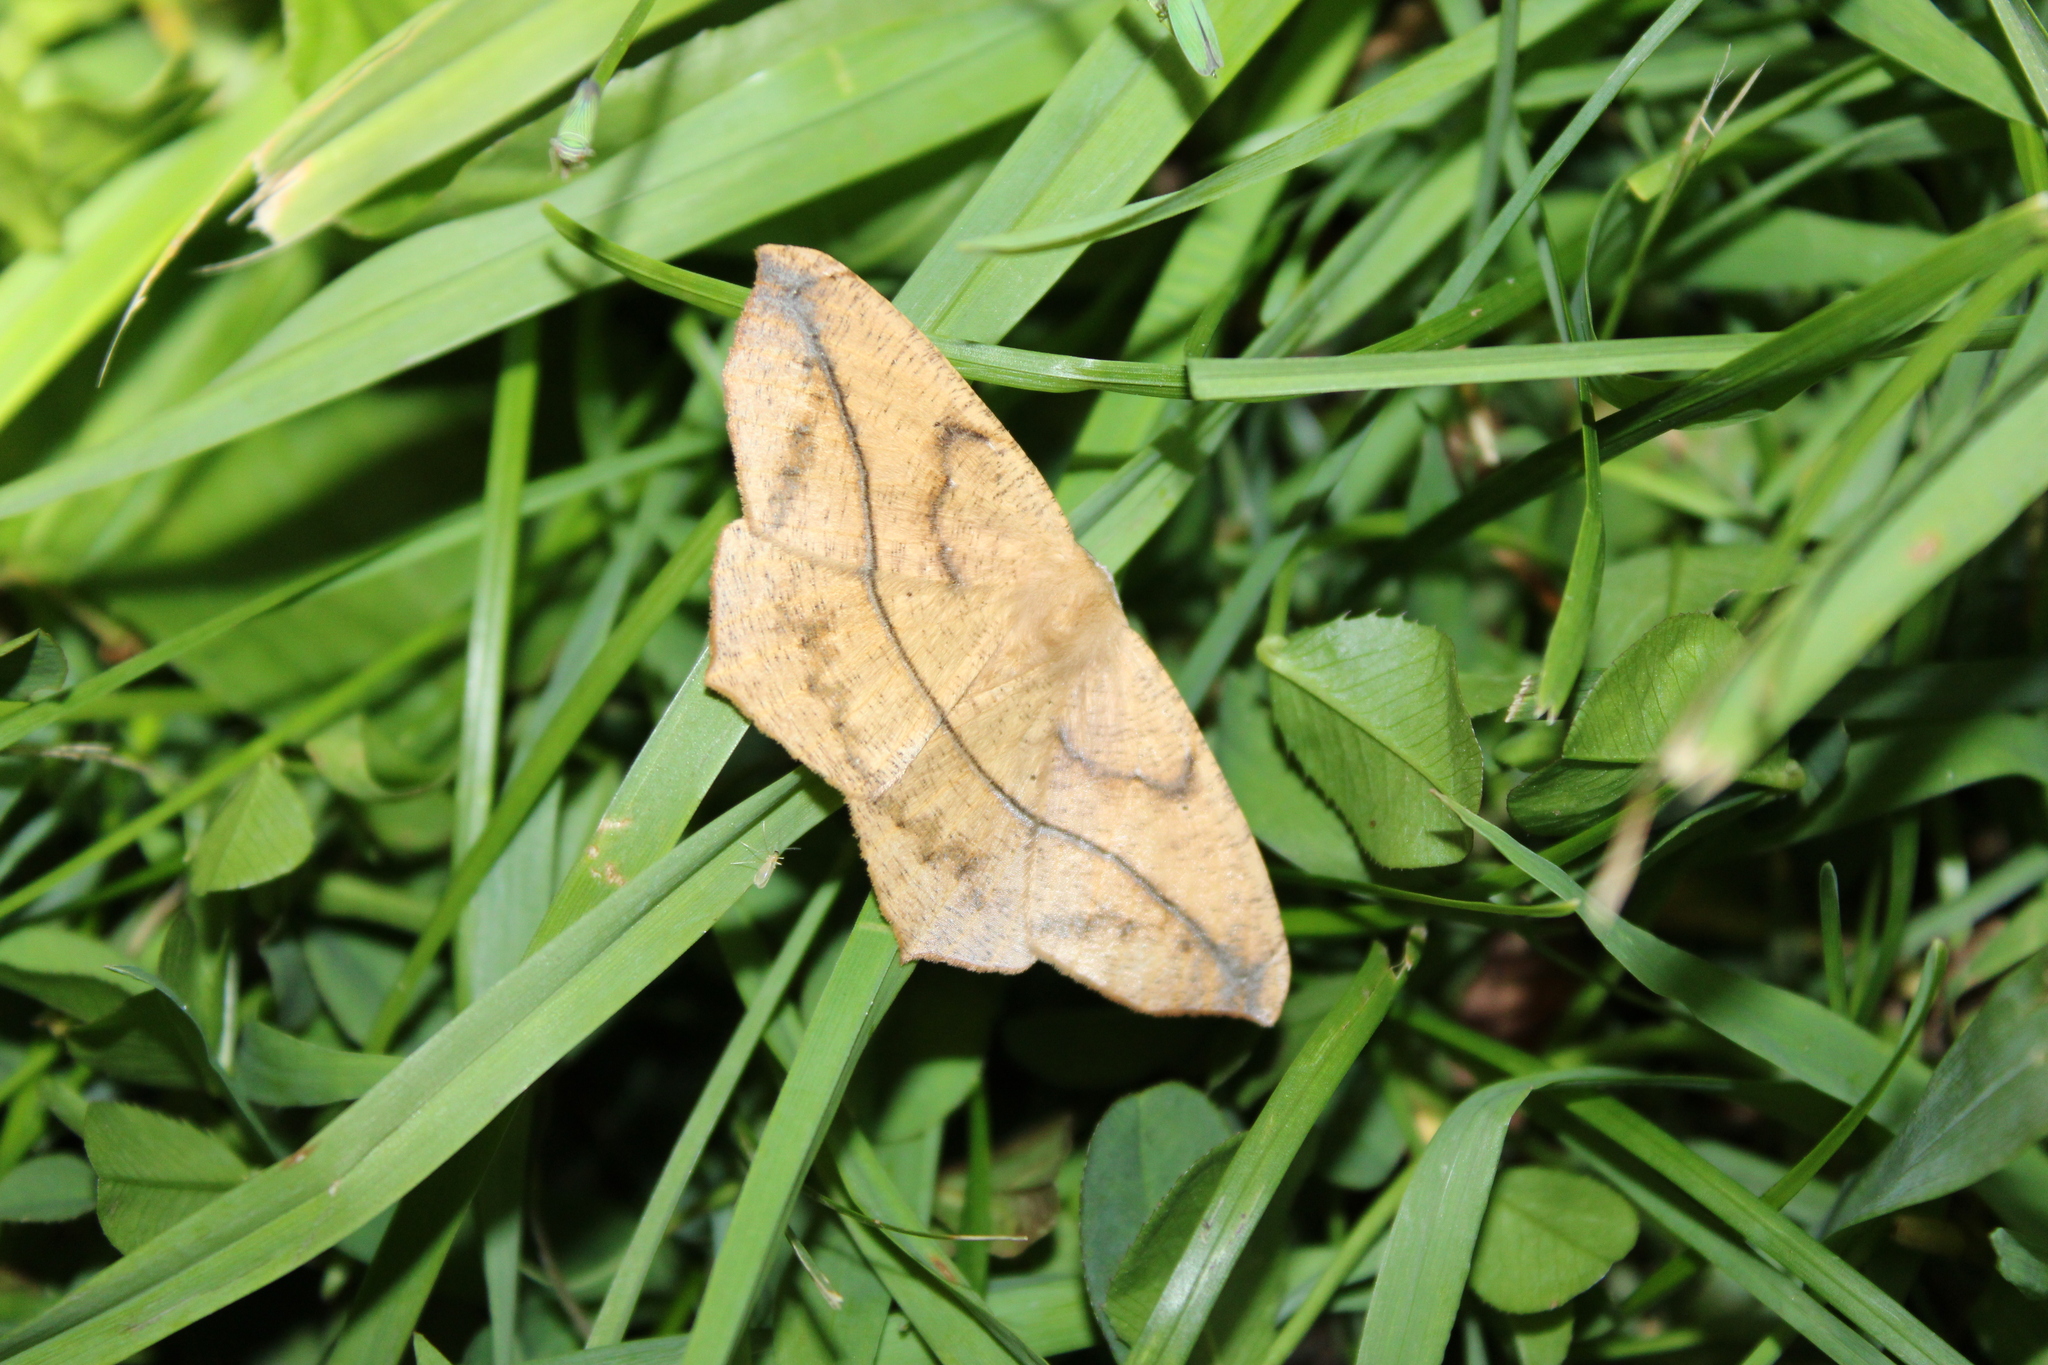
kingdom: Animalia
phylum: Arthropoda
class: Insecta
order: Lepidoptera
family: Geometridae
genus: Prochoerodes
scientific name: Prochoerodes lineola
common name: Large maple spanworm
